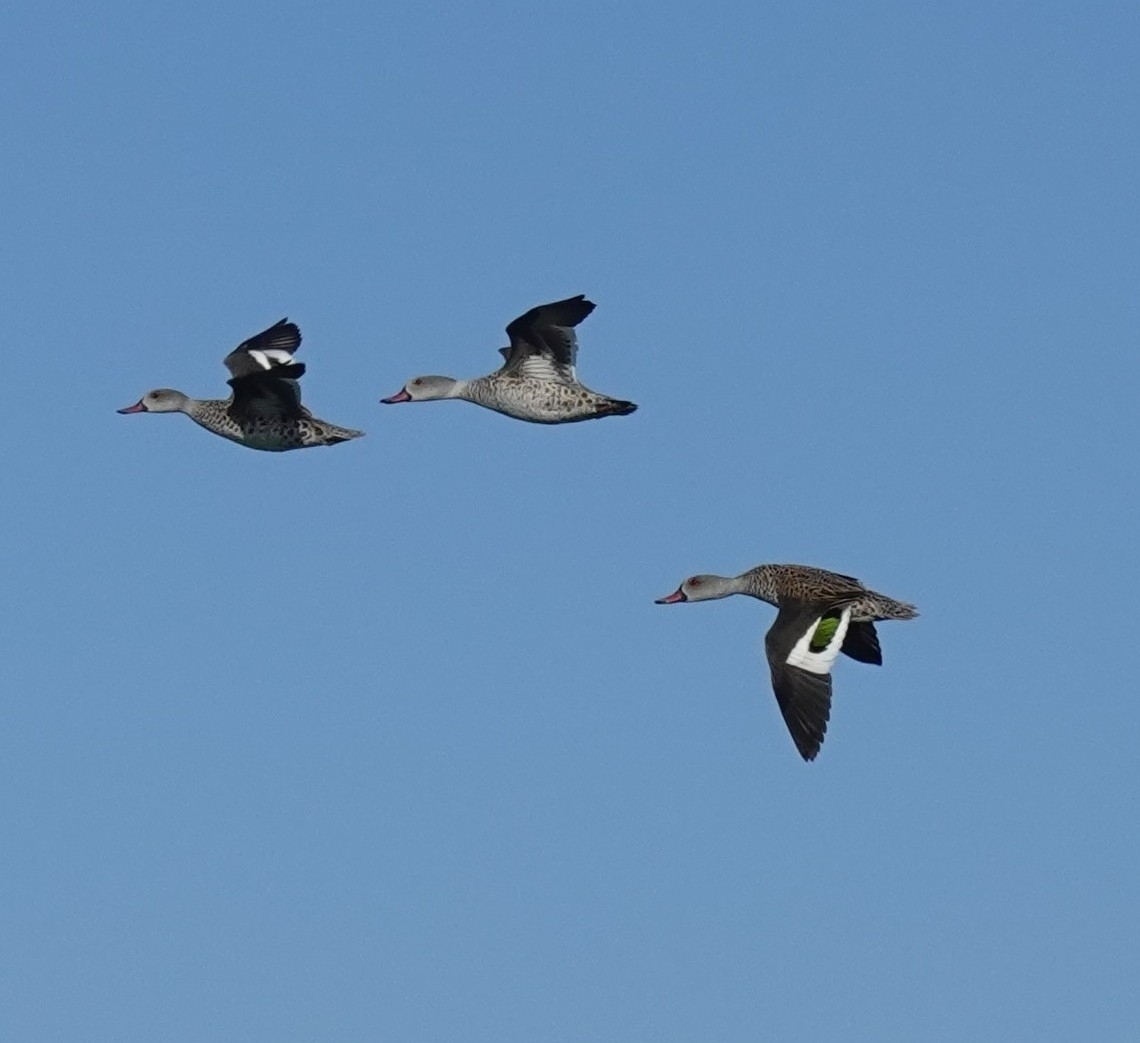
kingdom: Animalia
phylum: Chordata
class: Aves
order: Anseriformes
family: Anatidae
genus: Anas
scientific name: Anas capensis
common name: Cape teal
